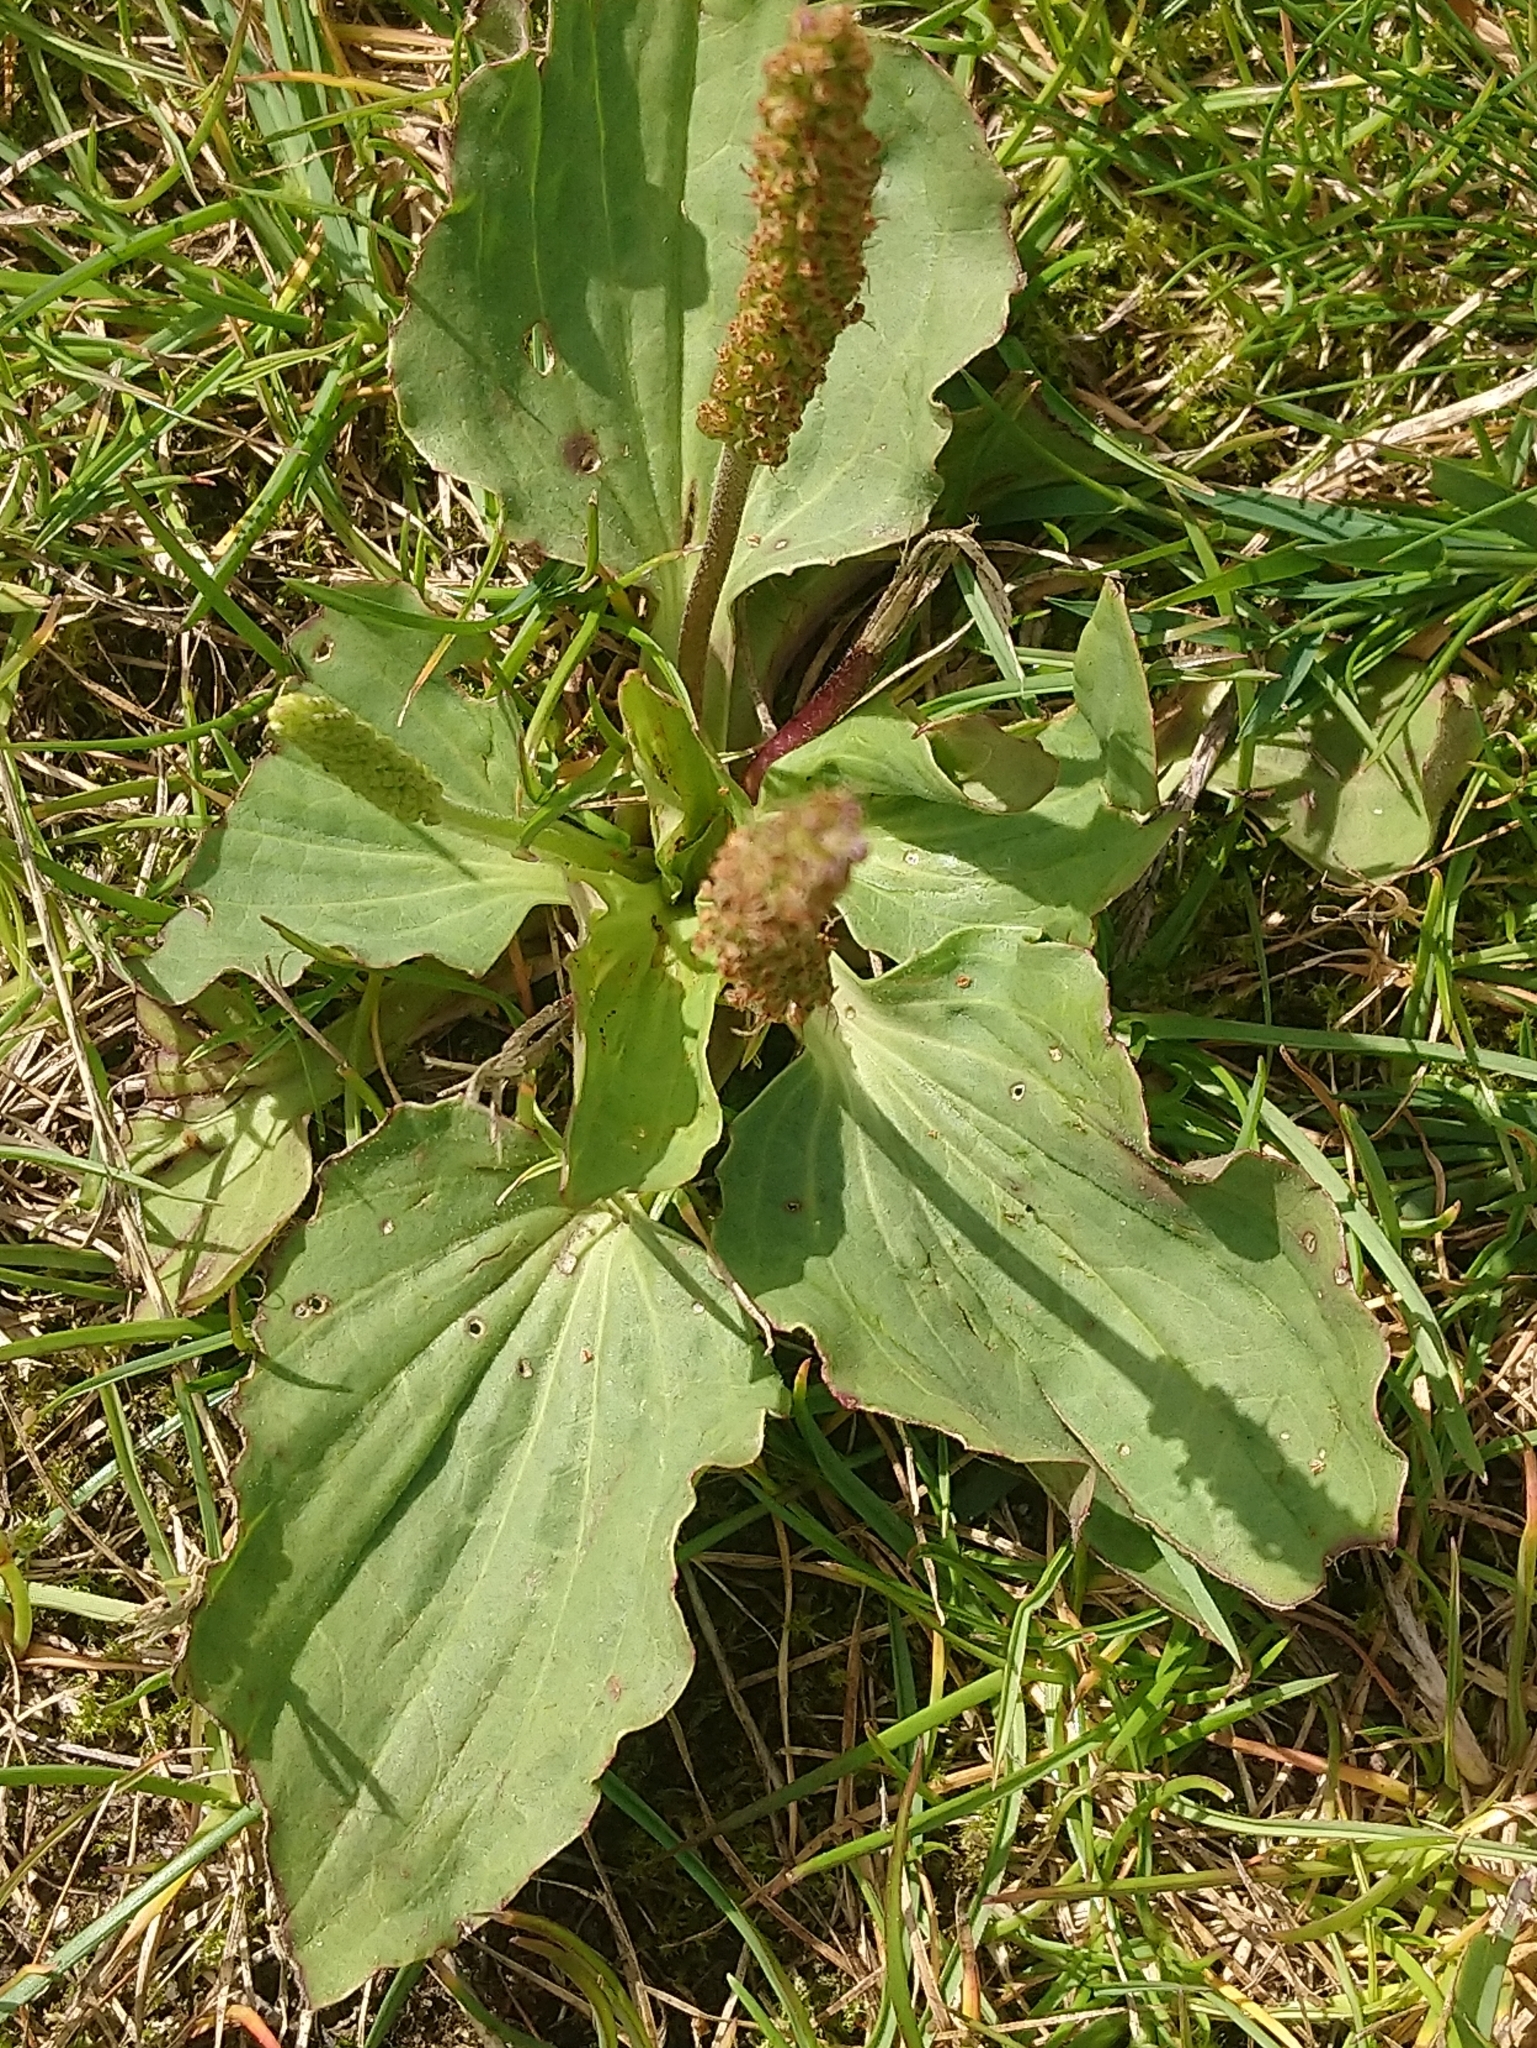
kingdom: Plantae
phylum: Tracheophyta
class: Magnoliopsida
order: Lamiales
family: Plantaginaceae
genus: Plantago
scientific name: Plantago major
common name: Common plantain
